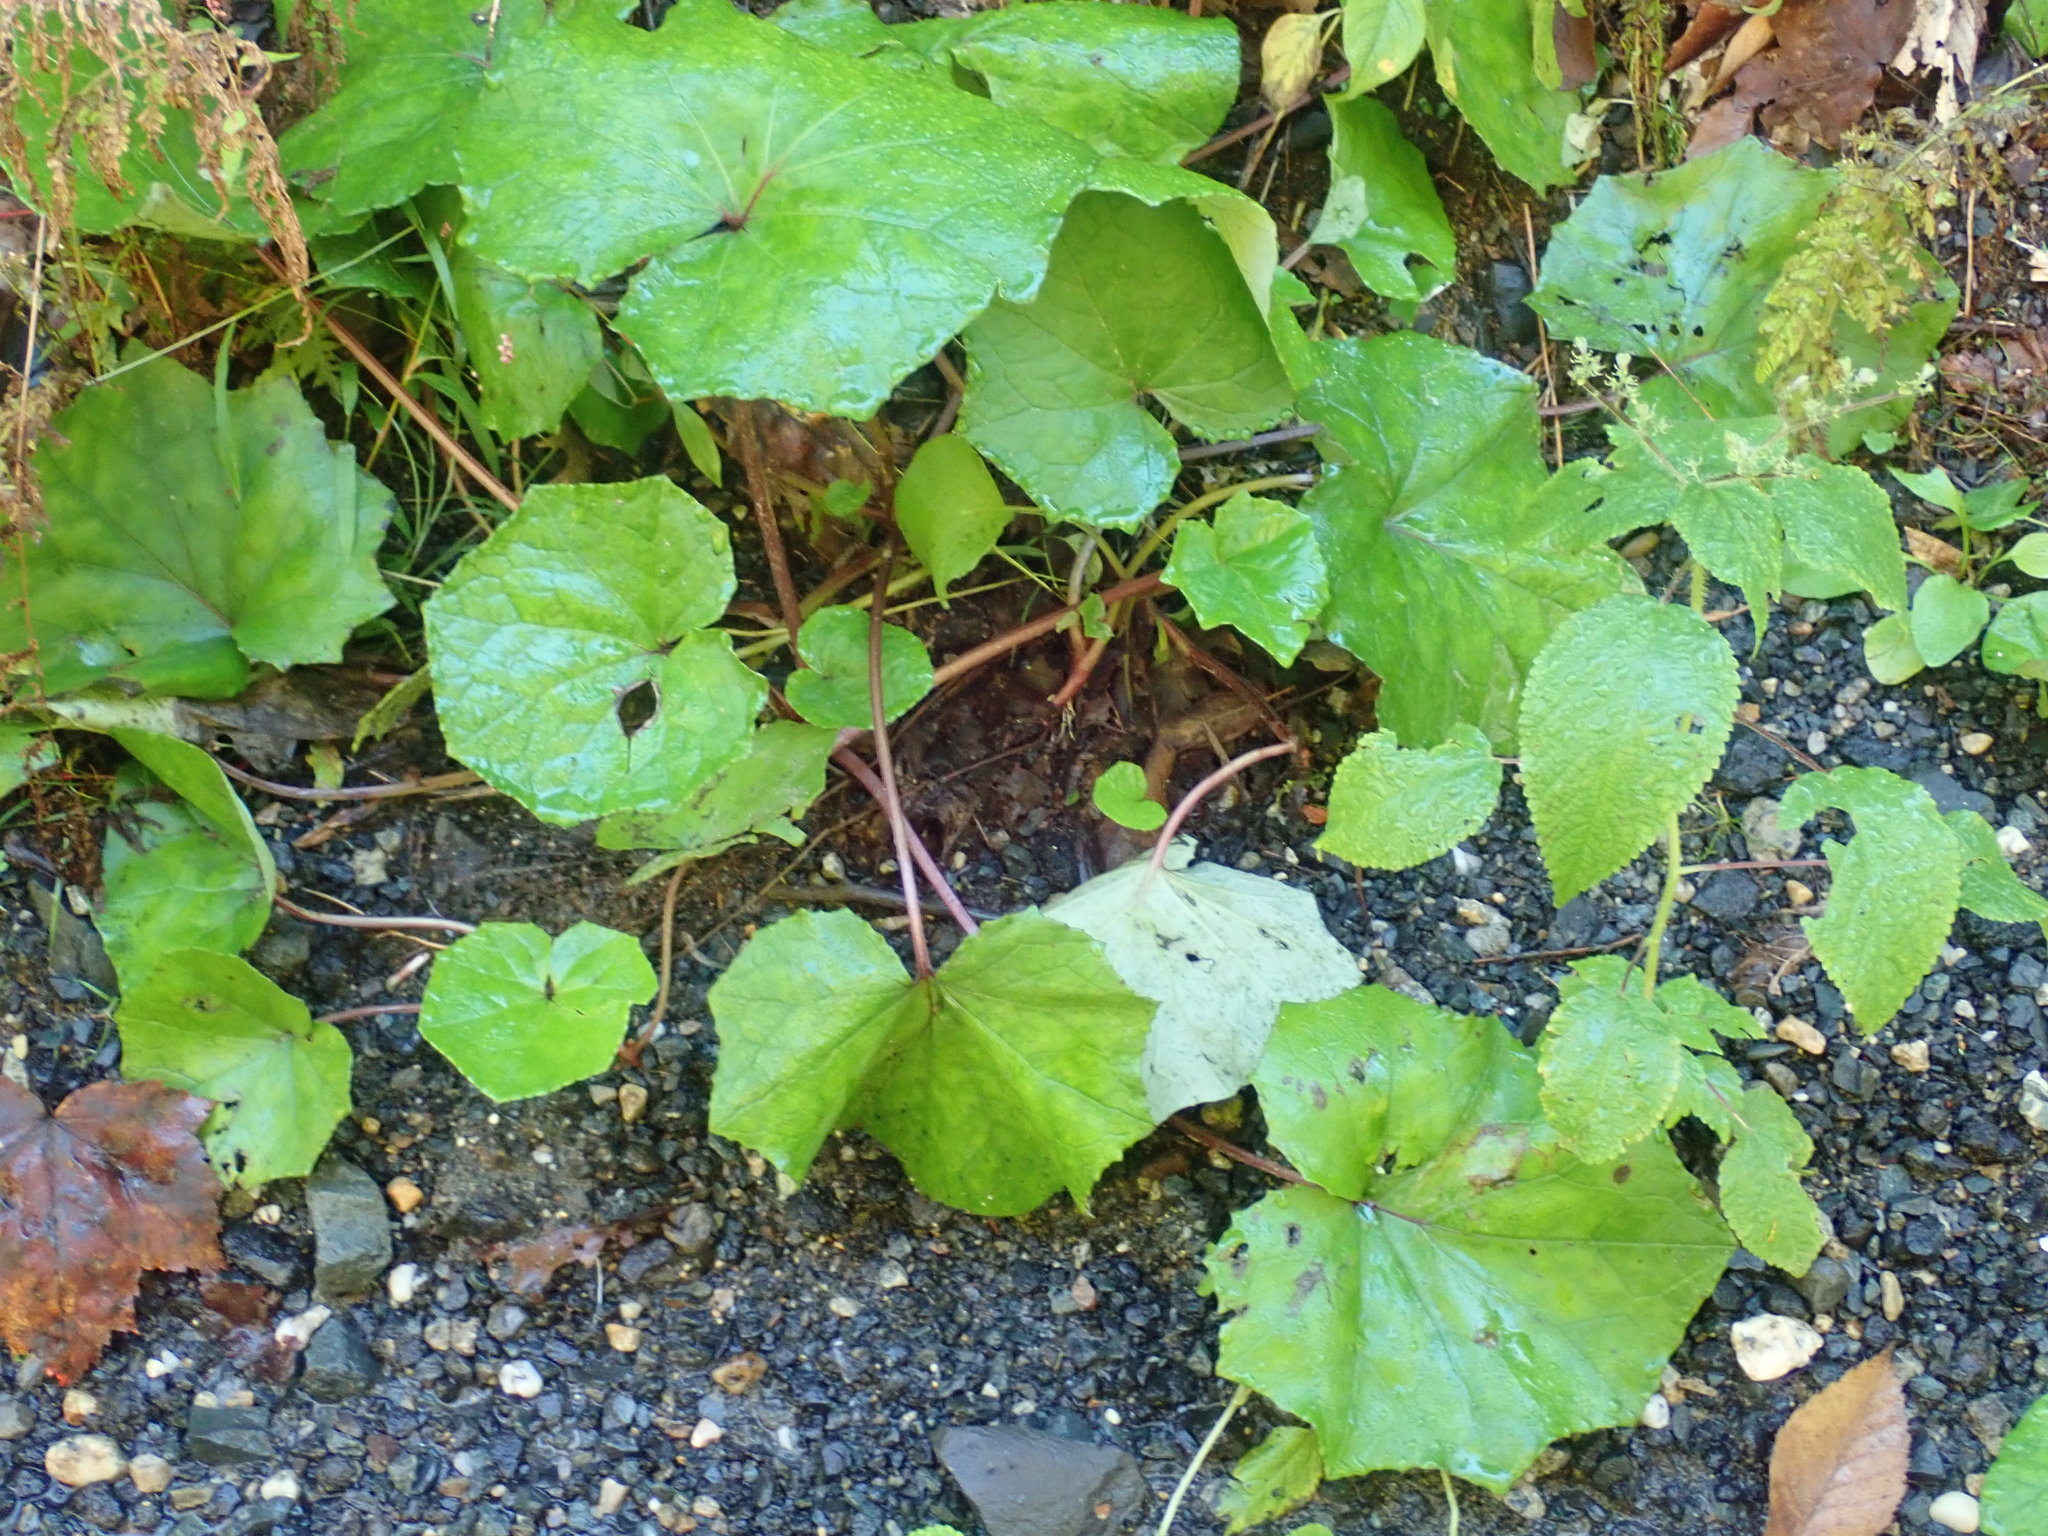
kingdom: Plantae
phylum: Tracheophyta
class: Magnoliopsida
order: Asterales
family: Asteraceae
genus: Tussilago
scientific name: Tussilago farfara
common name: Coltsfoot
